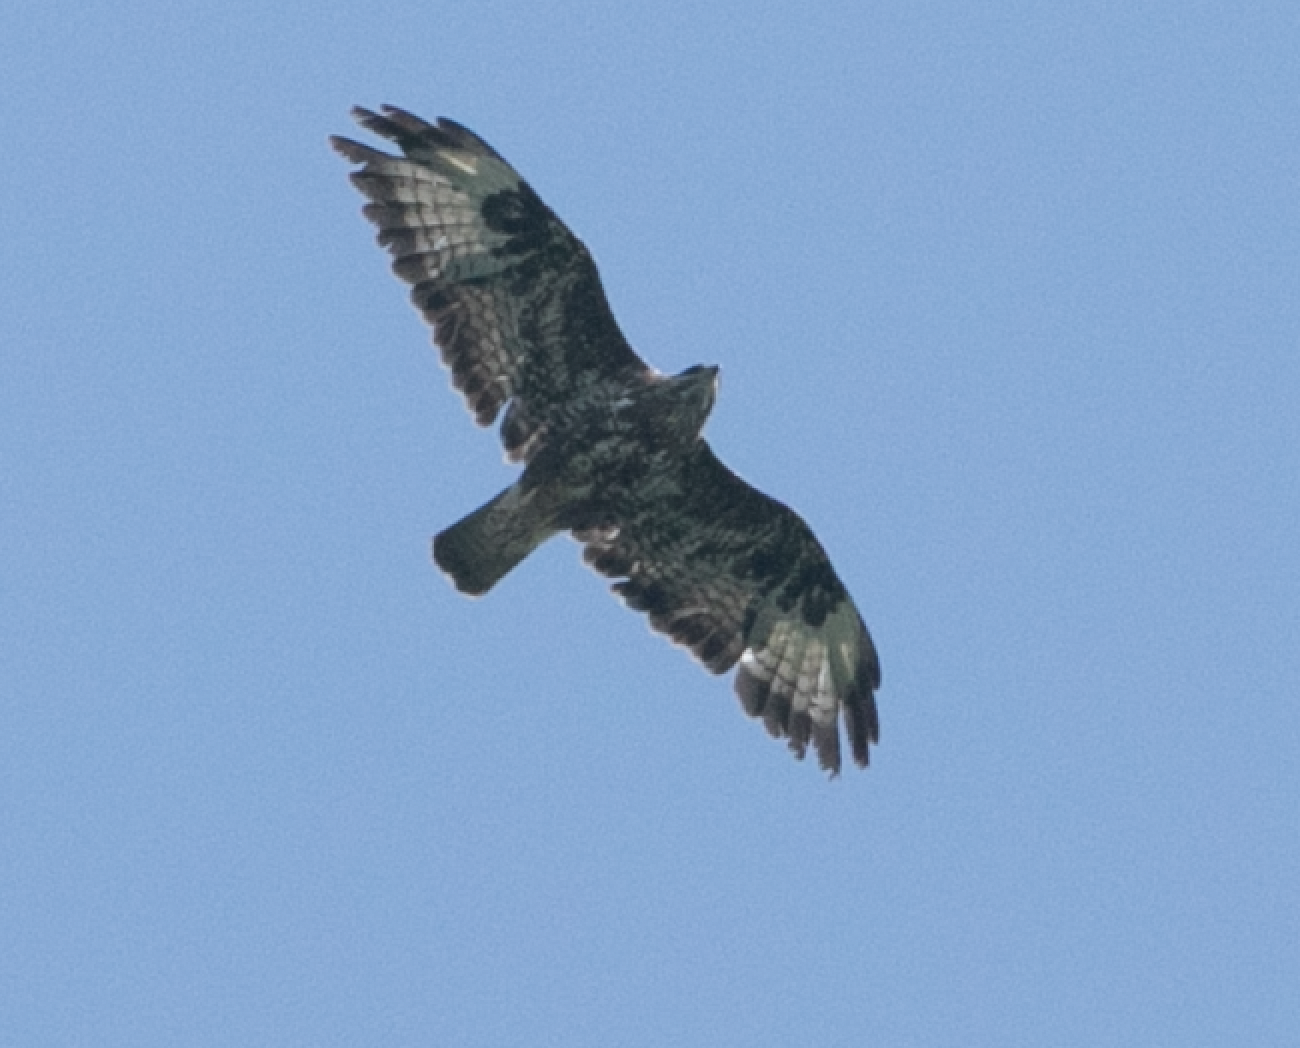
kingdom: Animalia
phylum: Chordata
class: Aves
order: Accipitriformes
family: Accipitridae
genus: Buteo
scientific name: Buteo buteo
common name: Common buzzard
